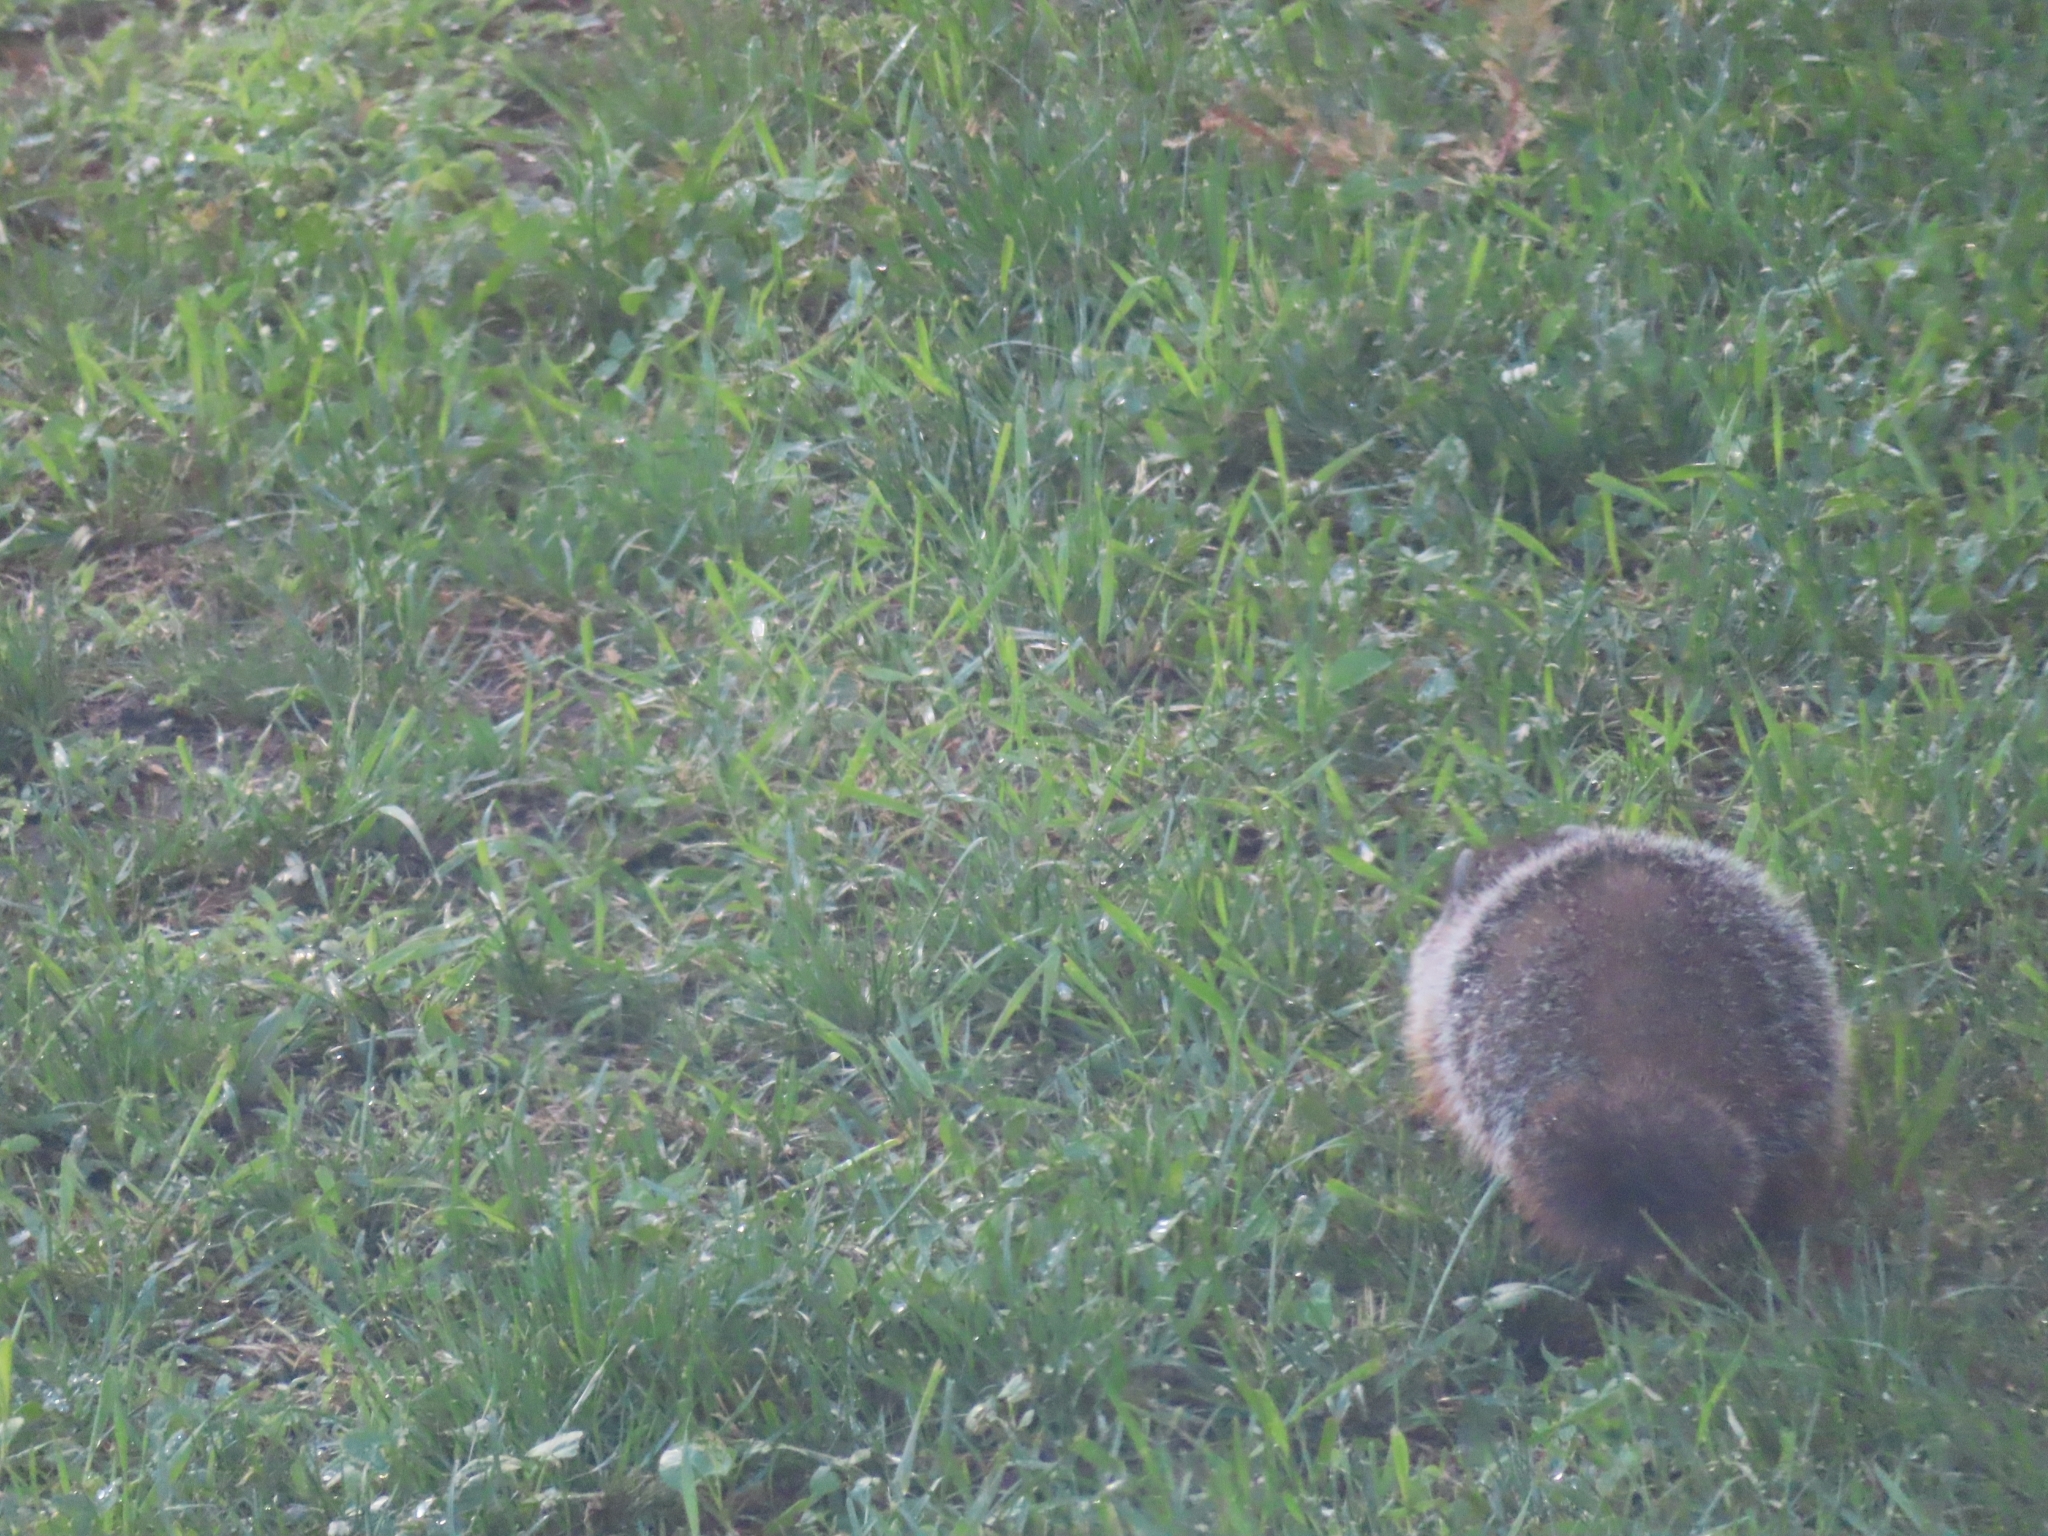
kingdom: Animalia
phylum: Chordata
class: Mammalia
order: Rodentia
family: Sciuridae
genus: Marmota
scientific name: Marmota monax
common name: Groundhog
